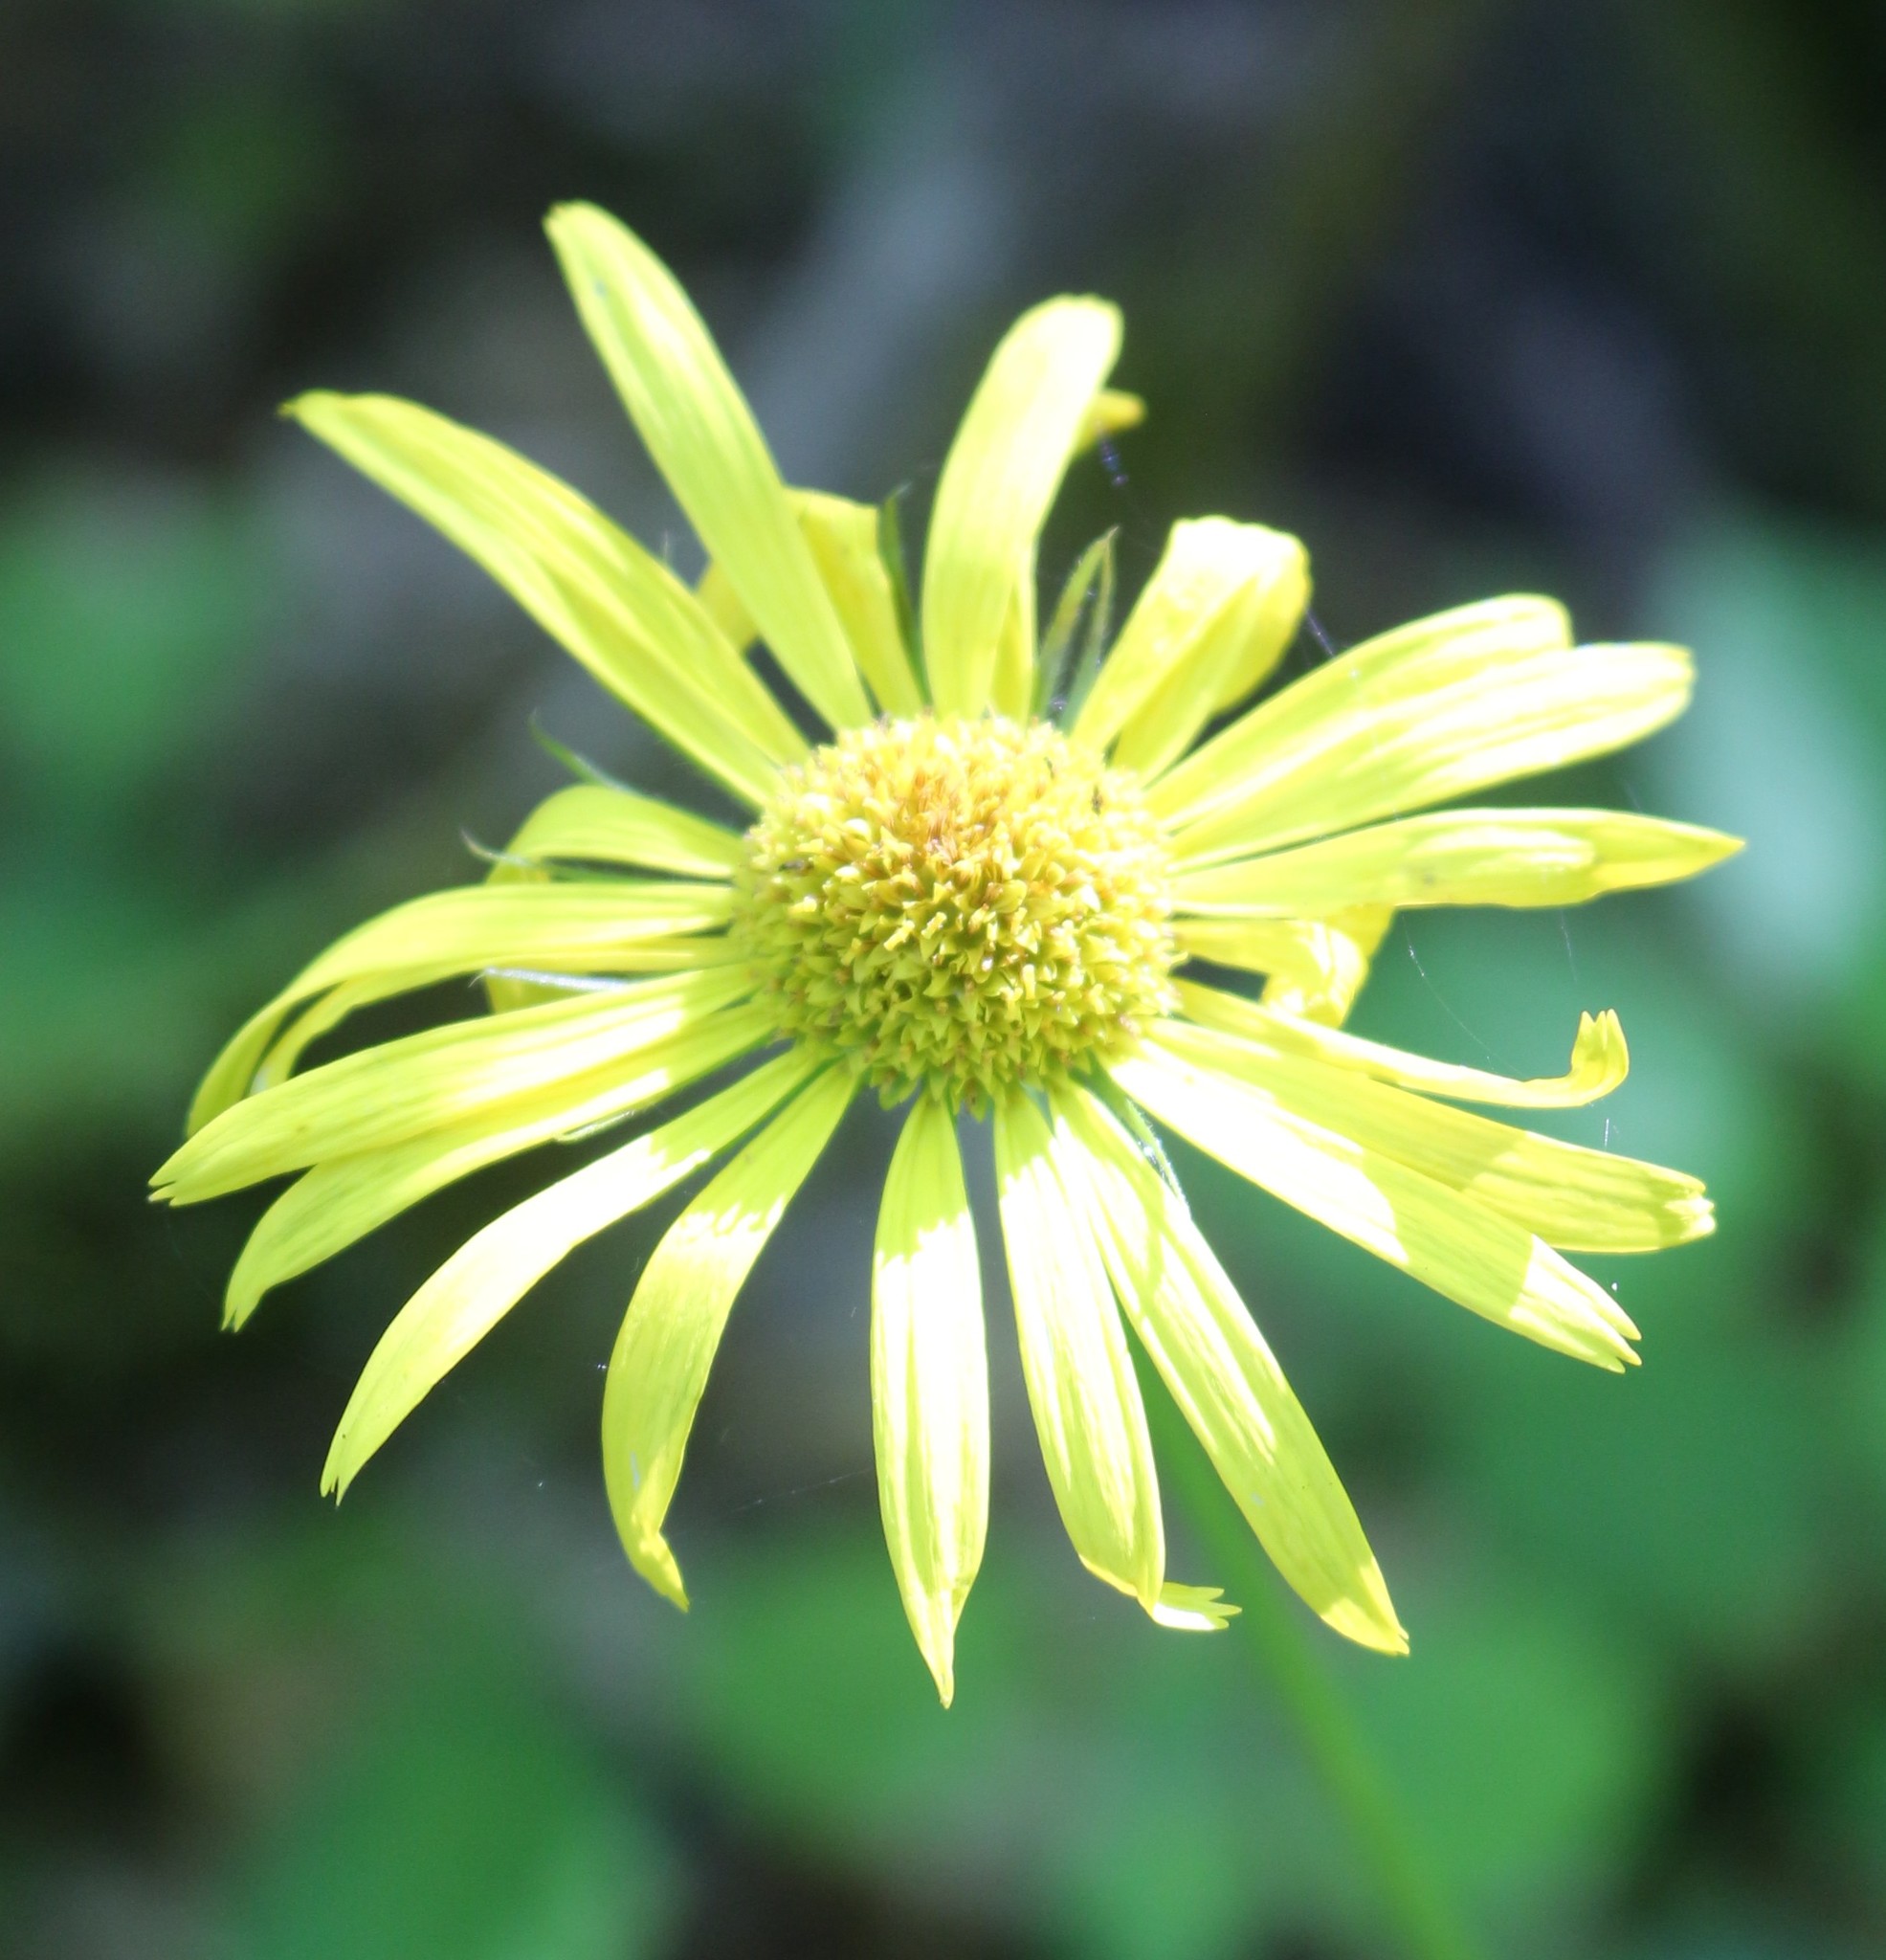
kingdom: Plantae
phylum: Tracheophyta
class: Magnoliopsida
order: Asterales
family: Asteraceae
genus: Doronicum
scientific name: Doronicum
